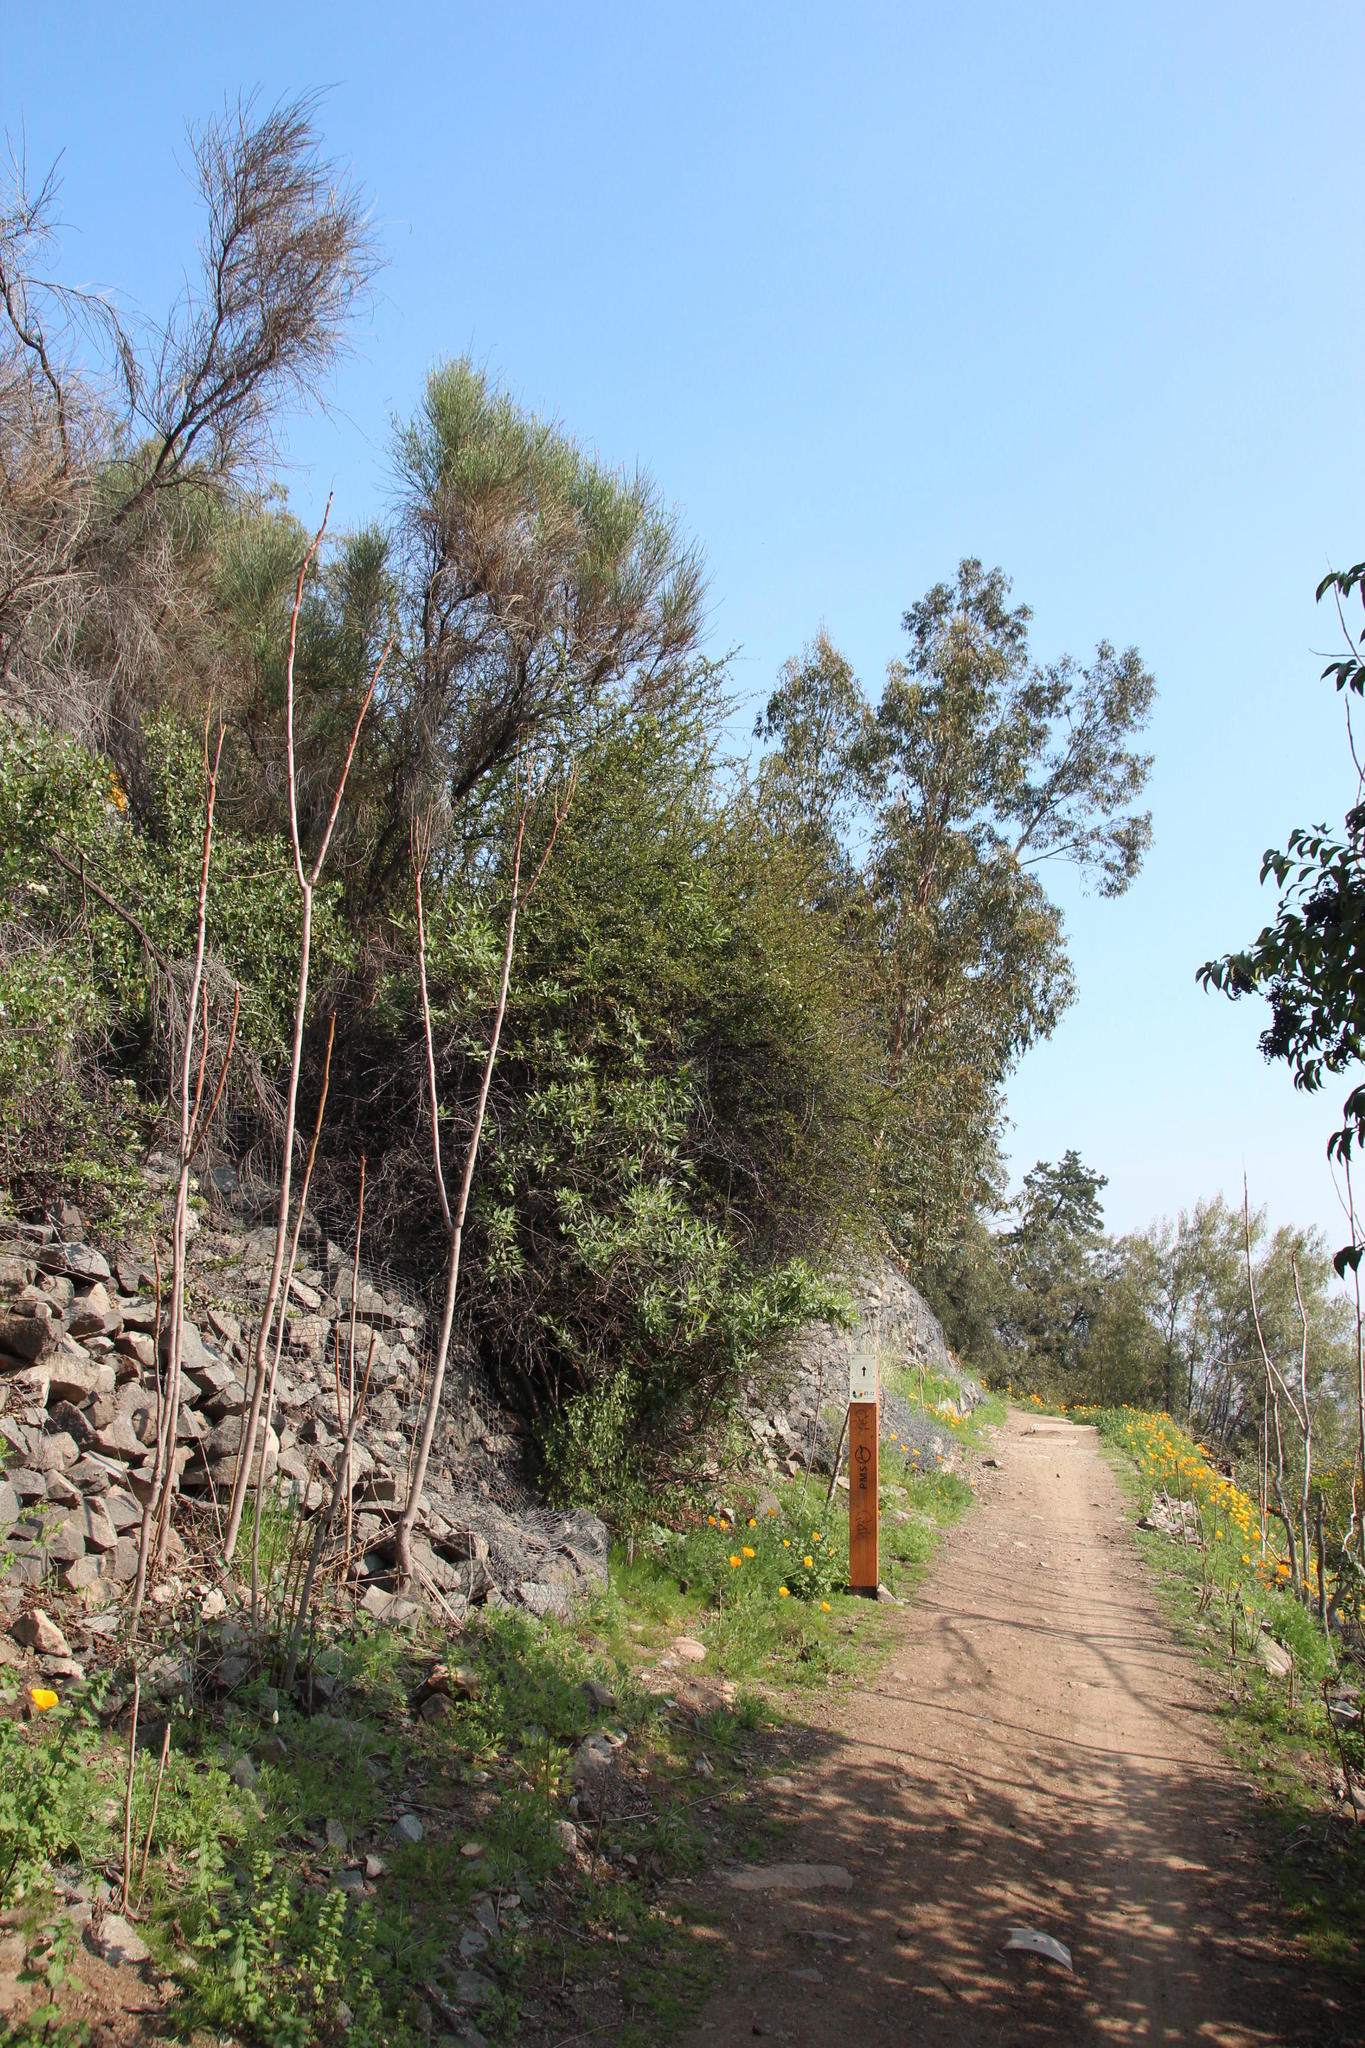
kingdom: Plantae
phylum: Tracheophyta
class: Magnoliopsida
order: Fabales
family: Fabaceae
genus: Spartium
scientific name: Spartium junceum
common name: Spanish broom
